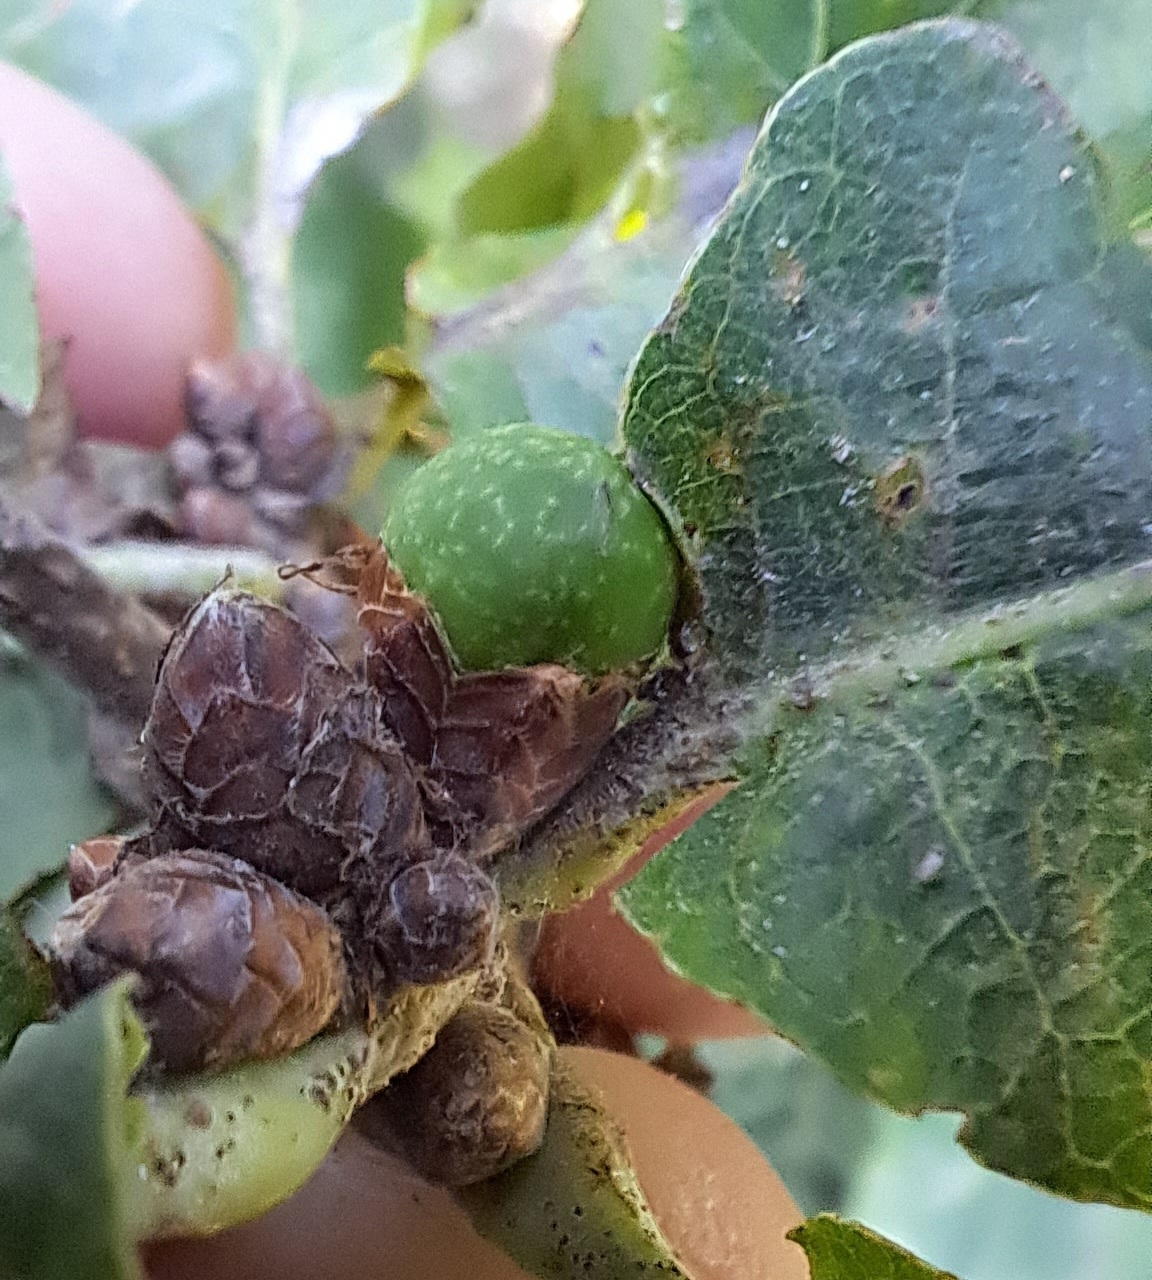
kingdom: Animalia
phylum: Arthropoda
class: Insecta
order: Hymenoptera
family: Cynipidae
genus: Andricus
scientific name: Andricus inflator
